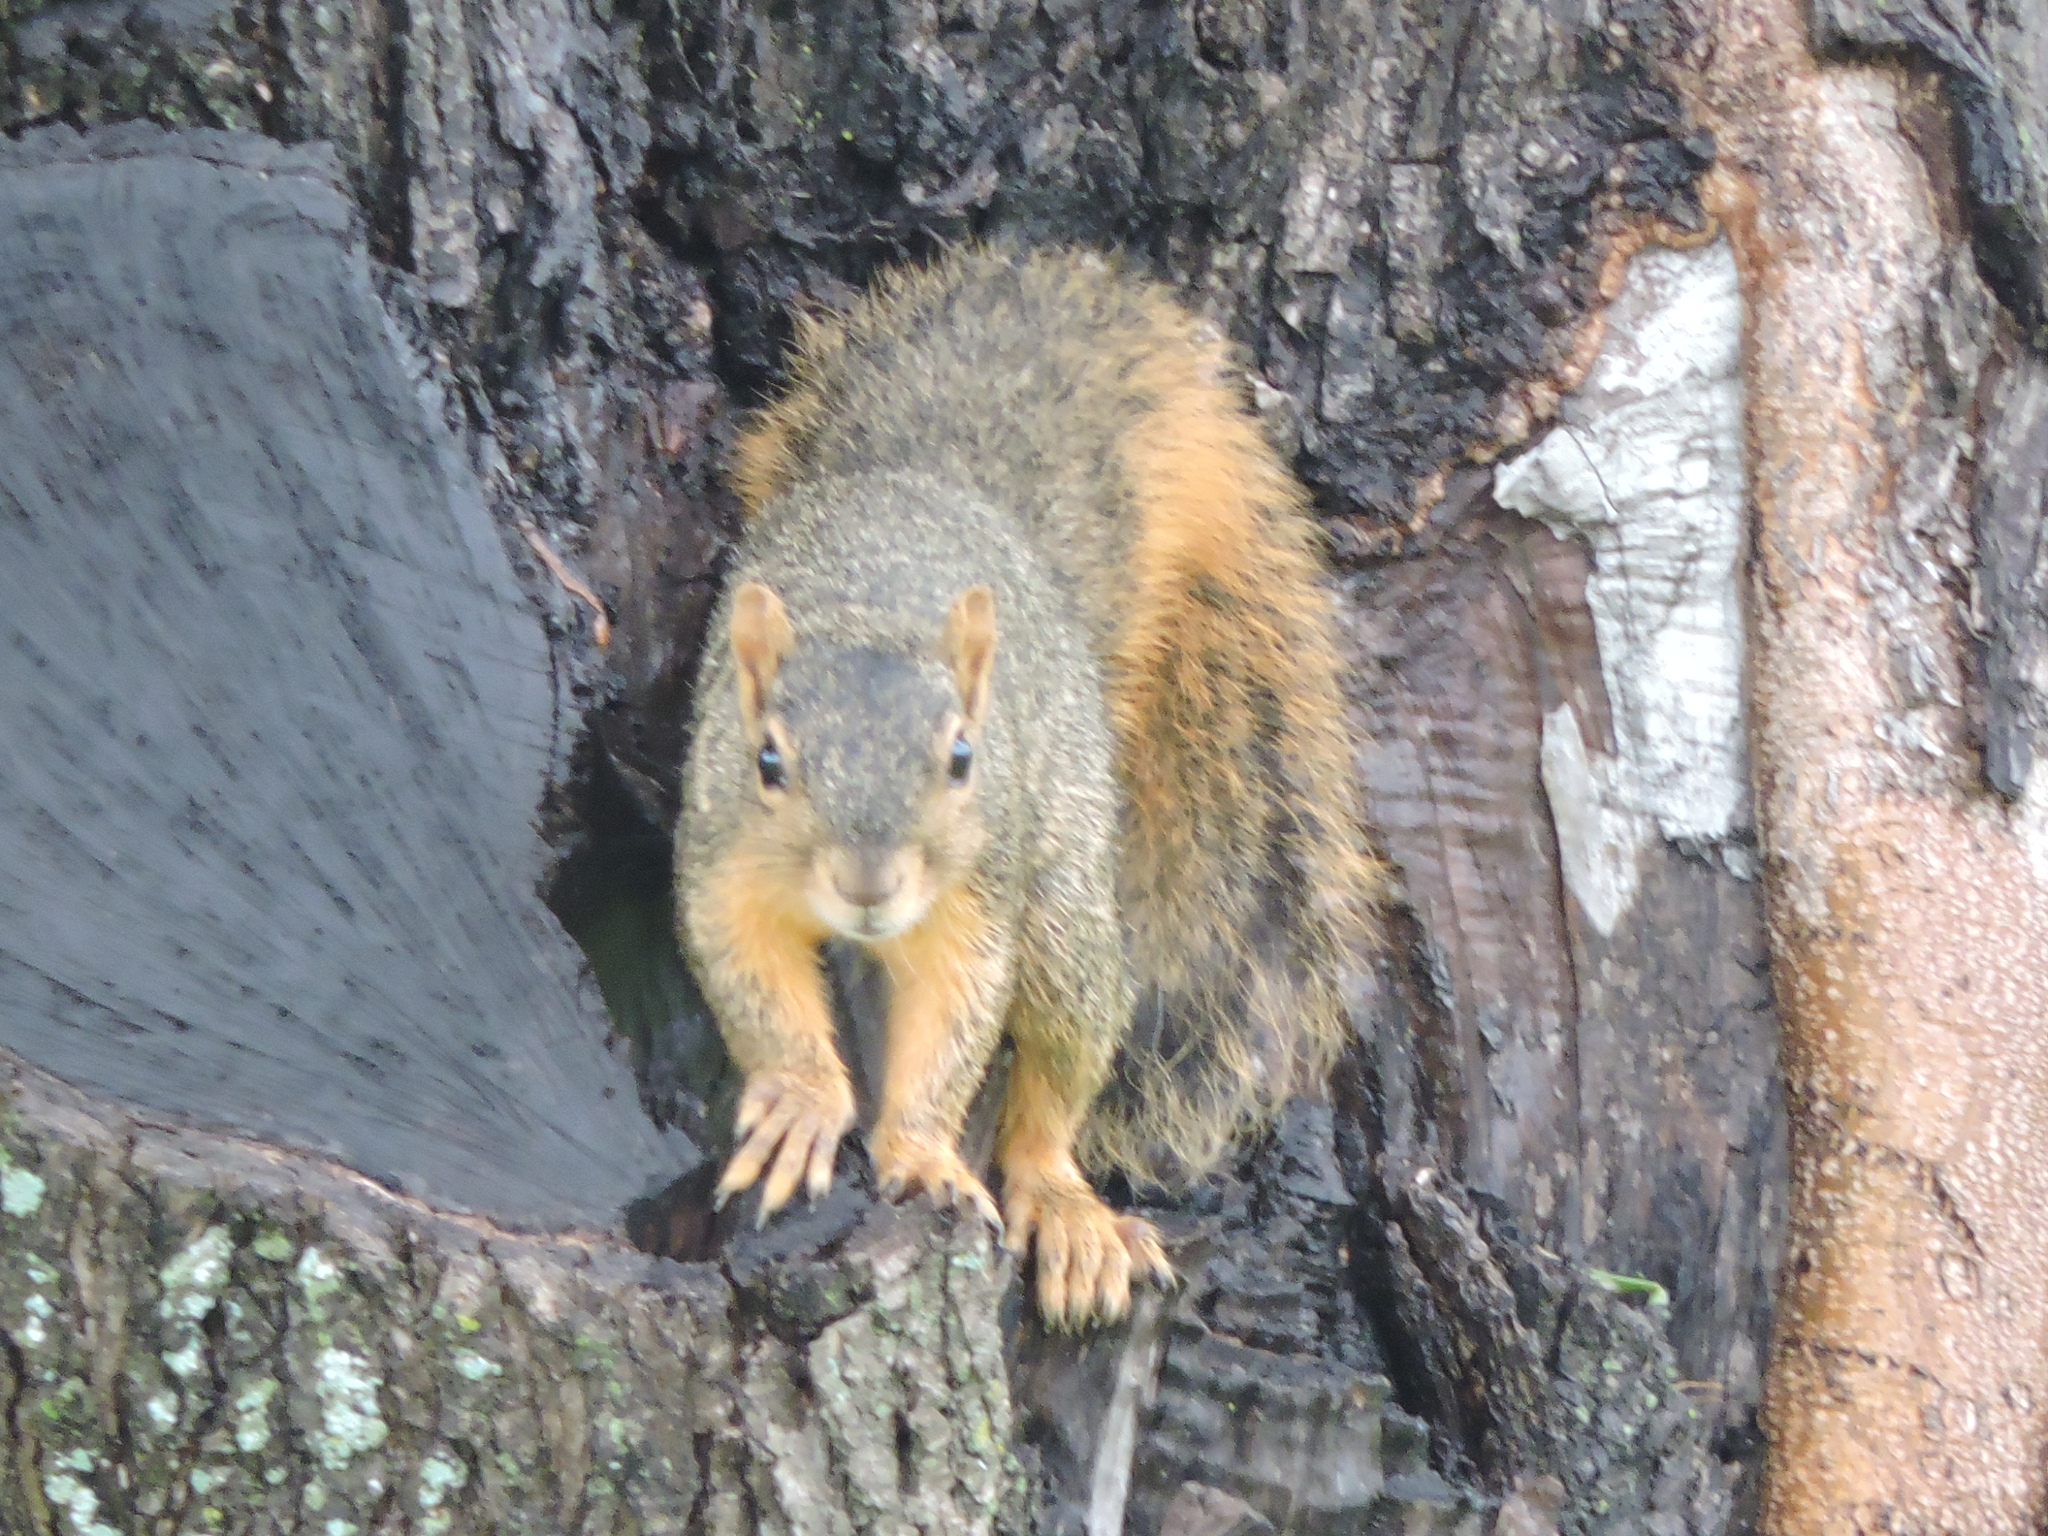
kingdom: Animalia
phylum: Chordata
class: Mammalia
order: Rodentia
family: Sciuridae
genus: Sciurus
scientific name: Sciurus niger
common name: Fox squirrel
